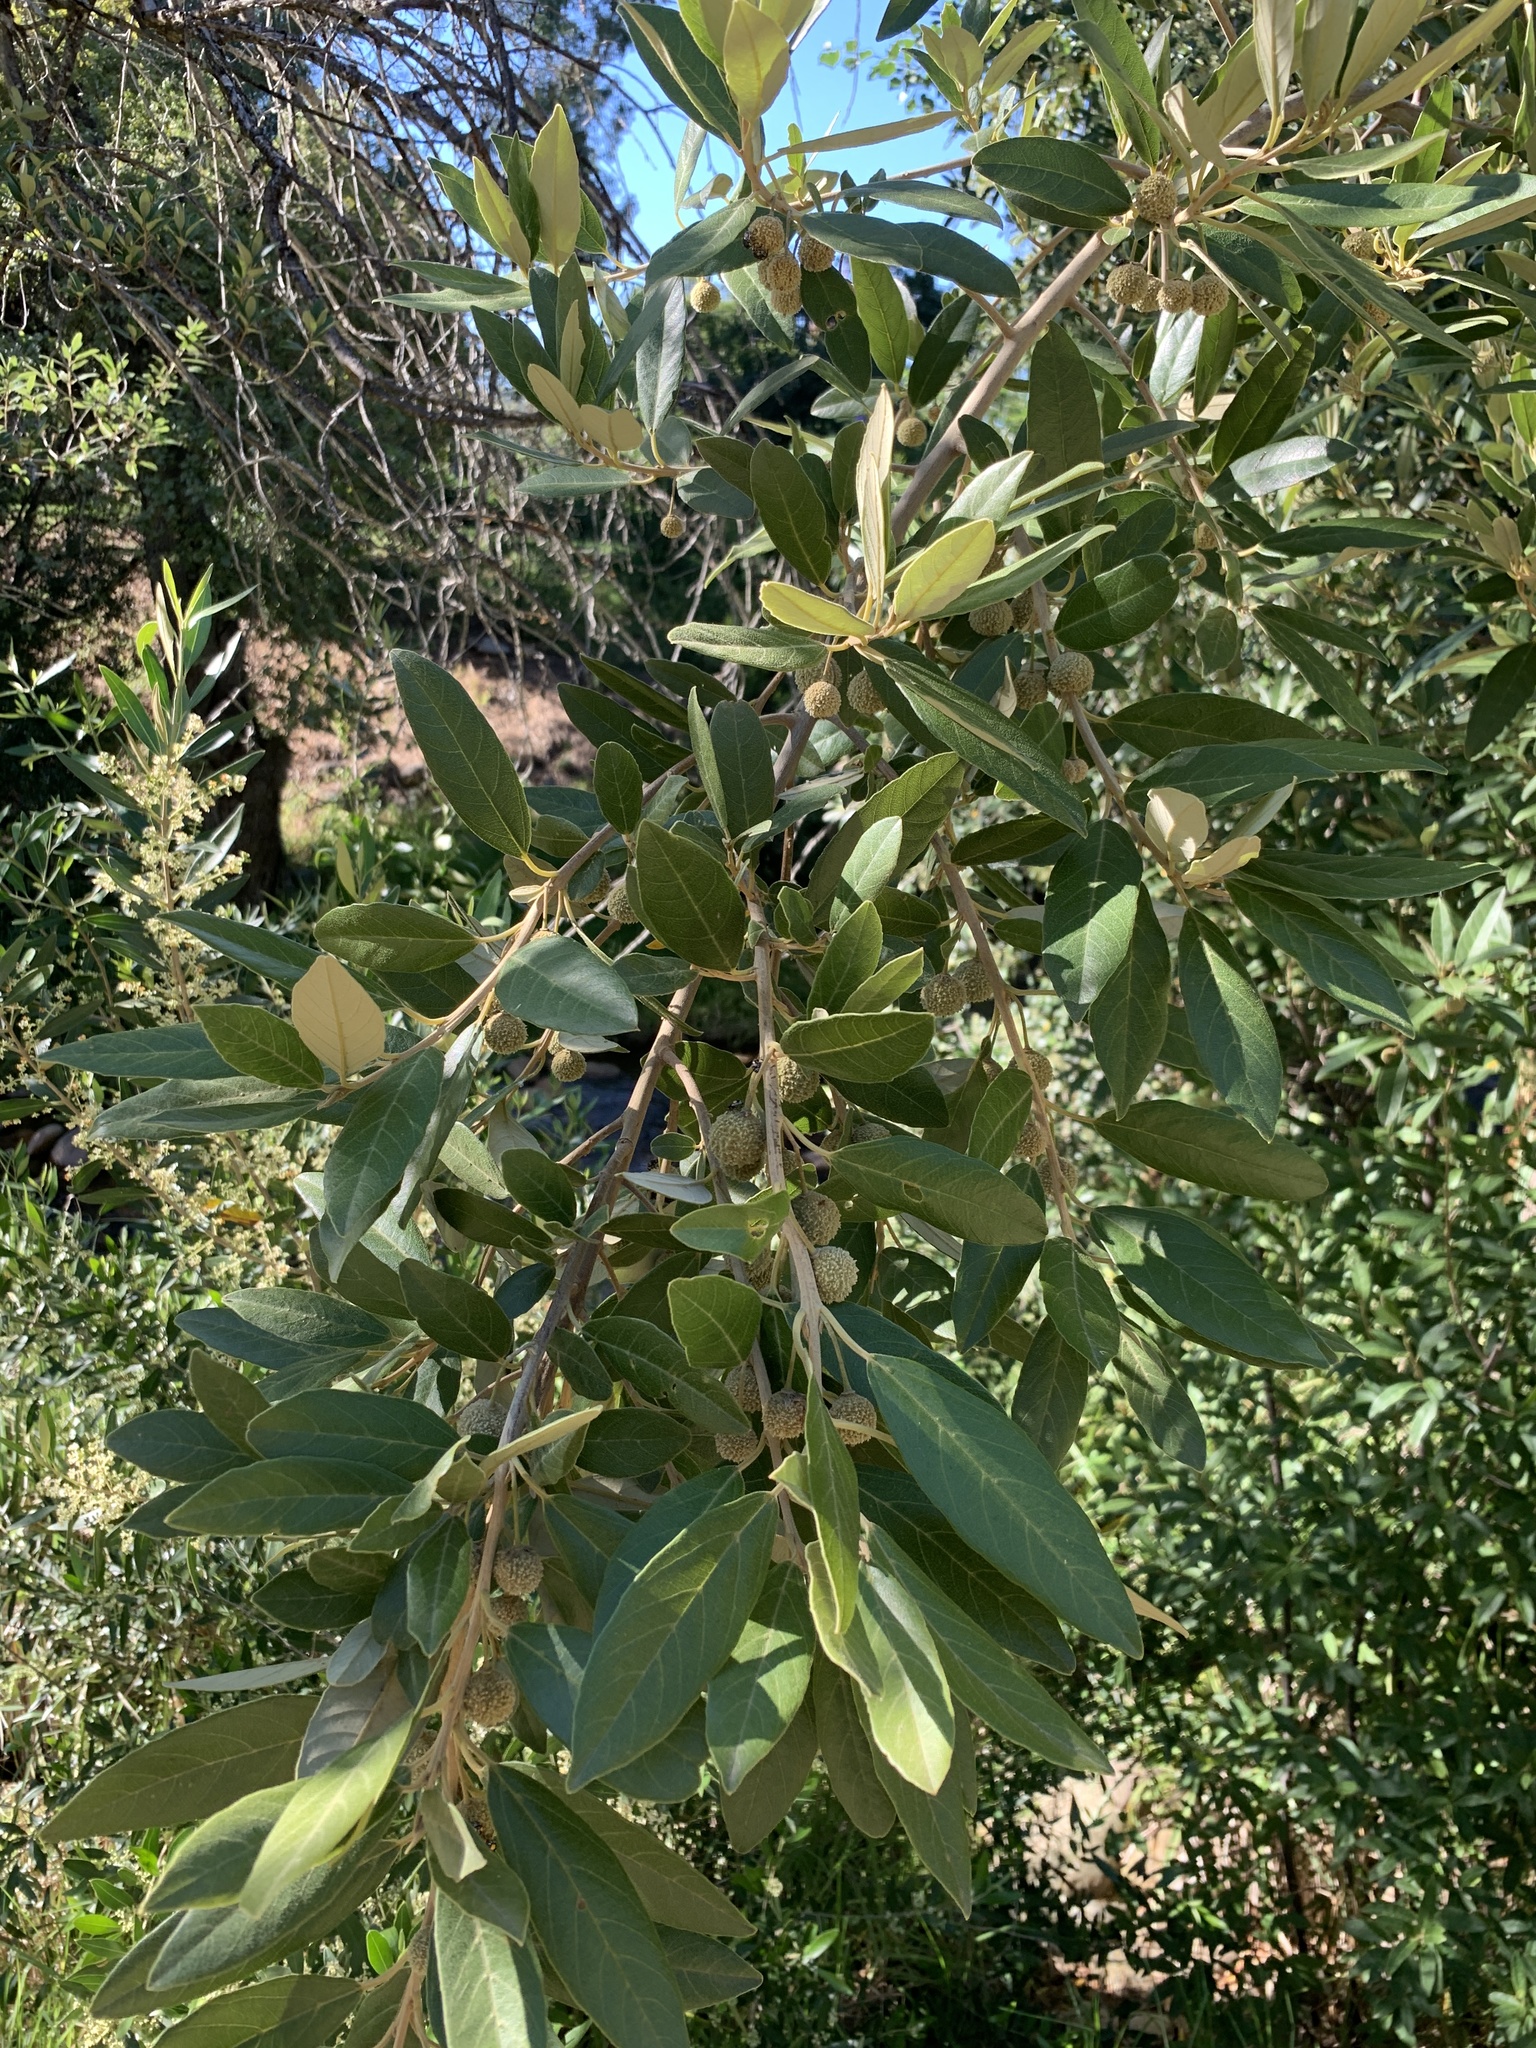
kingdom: Plantae
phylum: Tracheophyta
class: Magnoliopsida
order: Malpighiales
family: Achariaceae
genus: Kiggelaria
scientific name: Kiggelaria africana
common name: Wild peach
